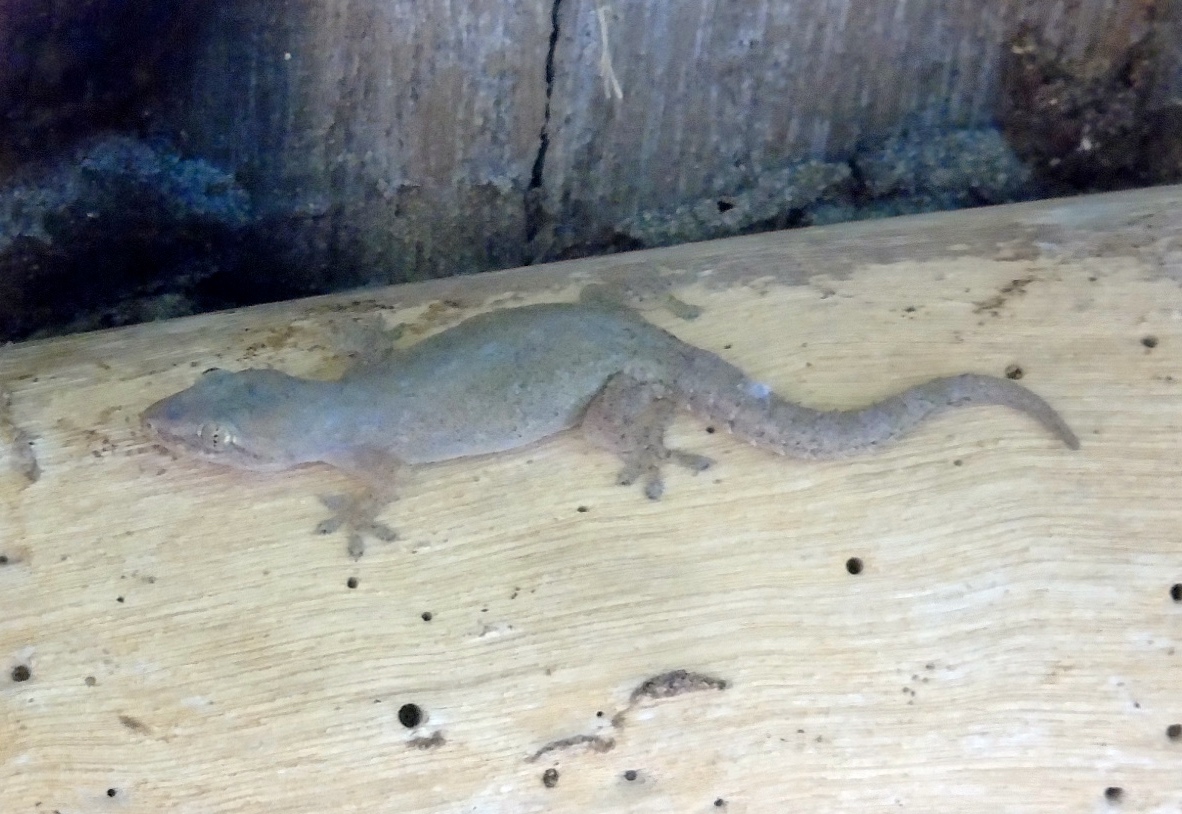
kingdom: Animalia
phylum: Chordata
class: Squamata
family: Gekkonidae
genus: Hemidactylus
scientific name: Hemidactylus frenatus
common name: Common house gecko
